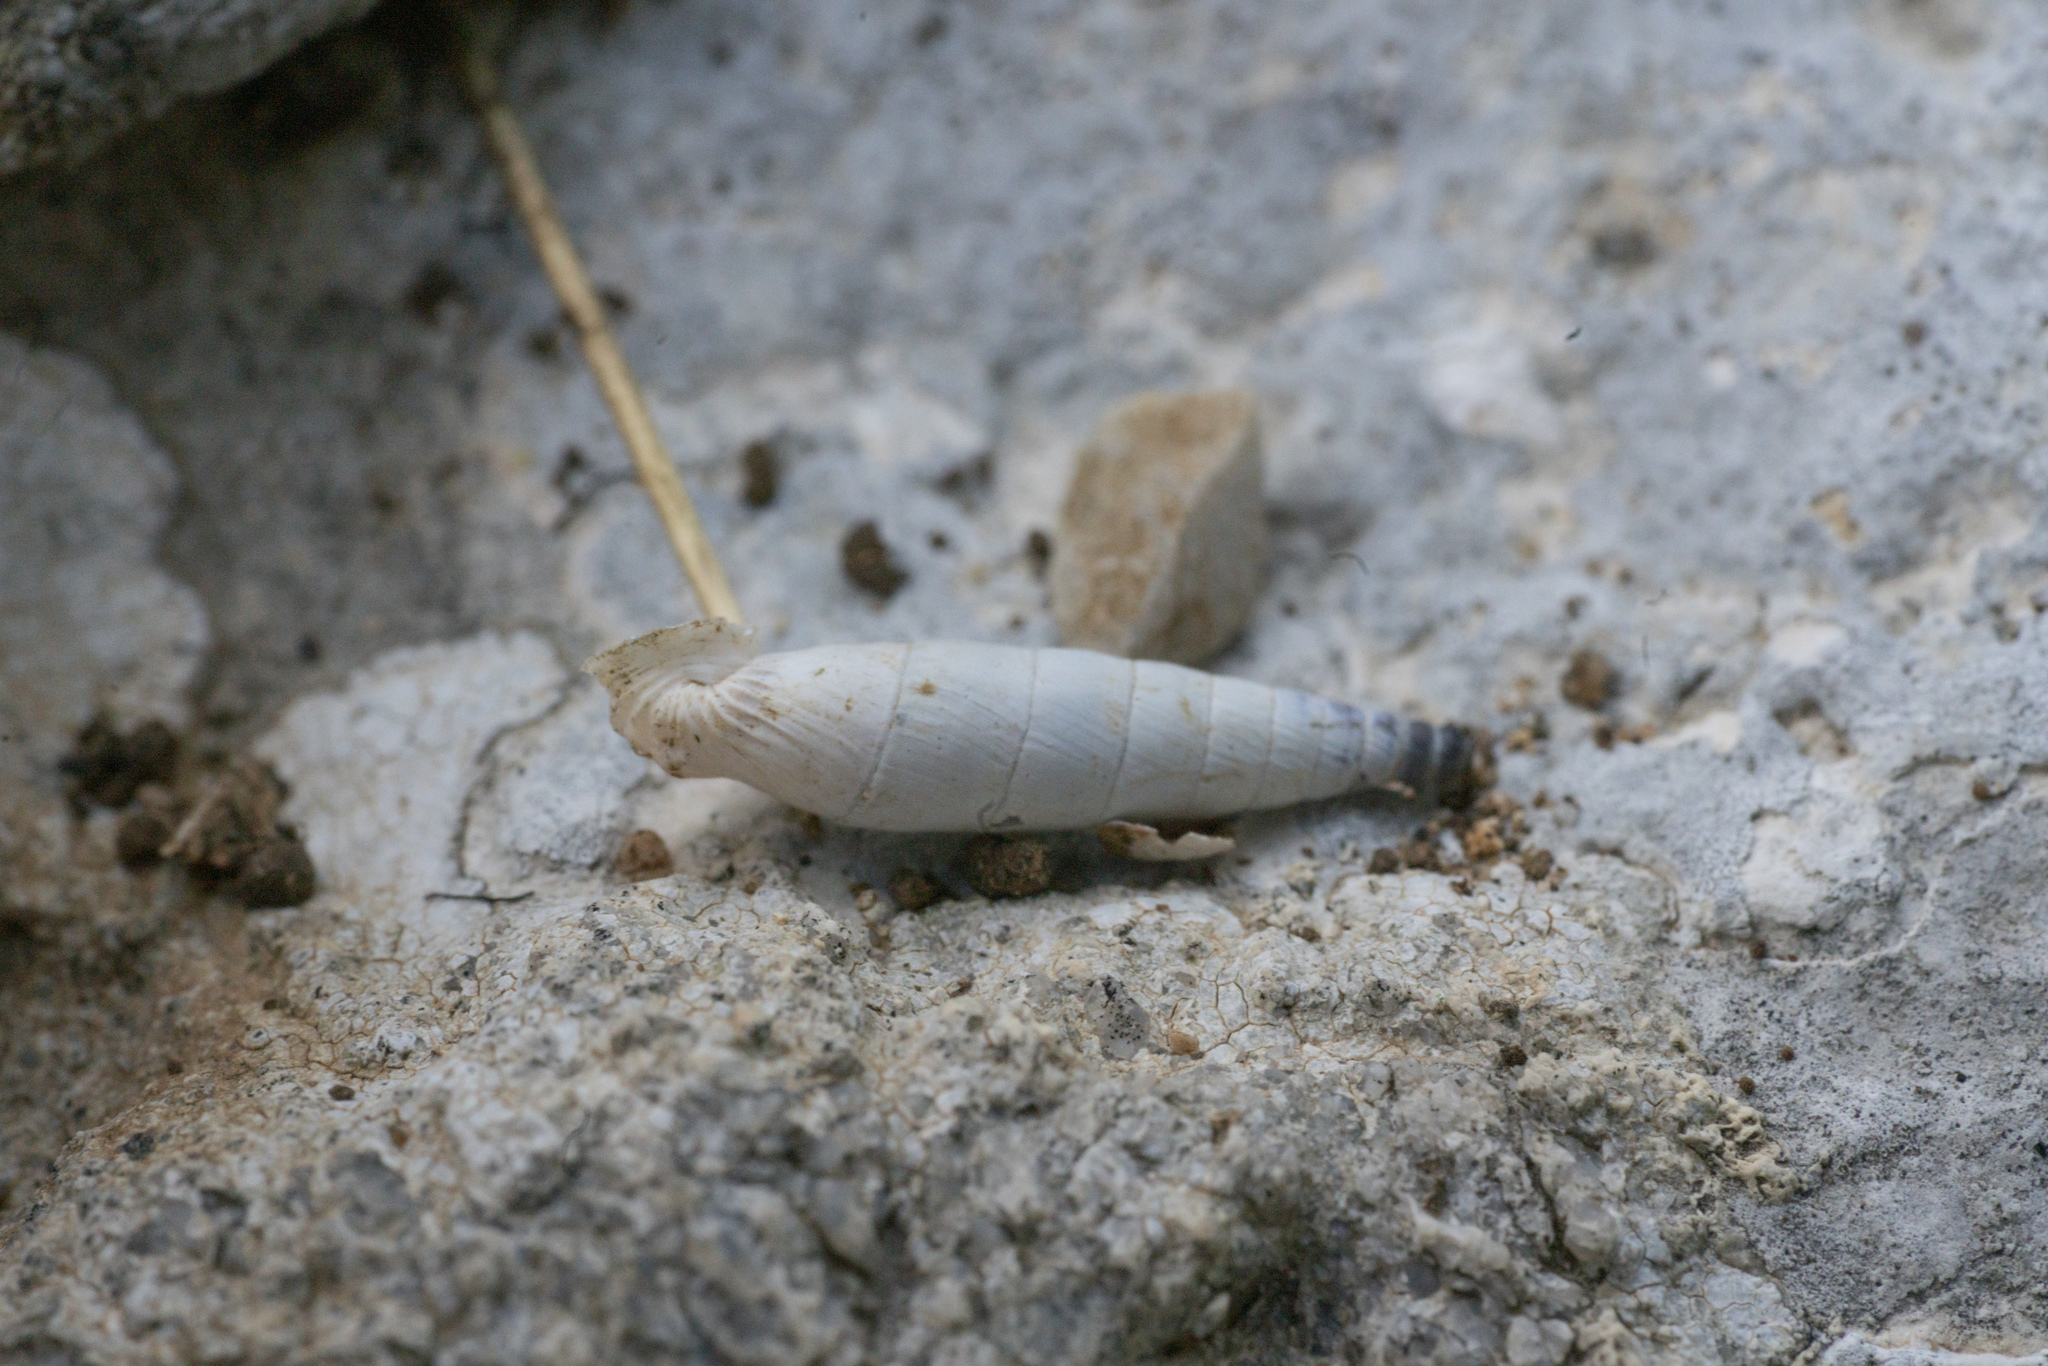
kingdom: Animalia
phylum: Mollusca
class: Gastropoda
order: Stylommatophora
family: Clausiliidae
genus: Albinaria
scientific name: Albinaria brevicollis
